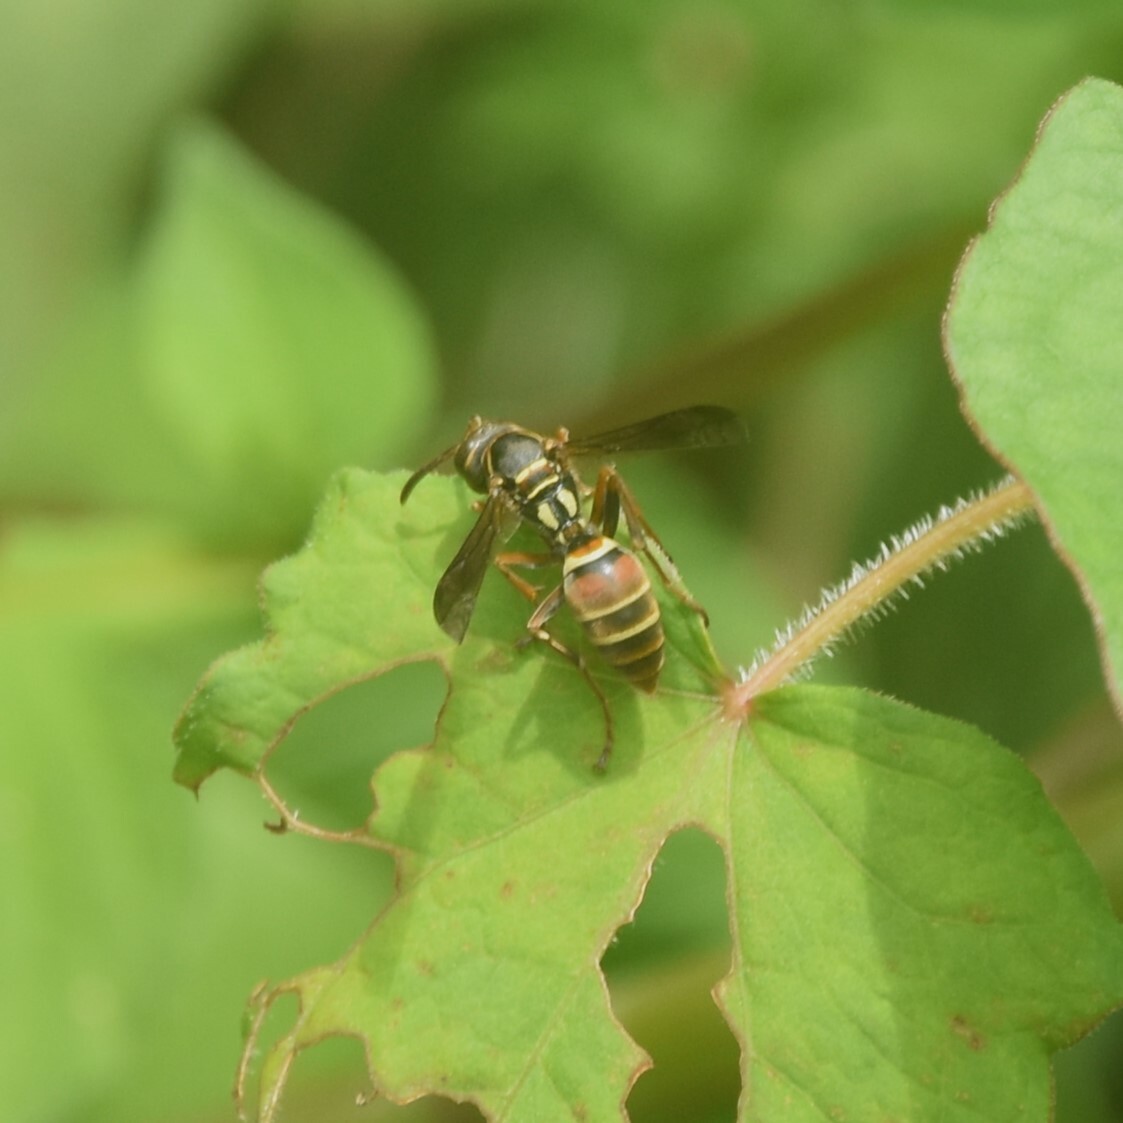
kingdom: Animalia
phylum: Arthropoda
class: Insecta
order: Hymenoptera
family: Eumenidae
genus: Knemodynerus
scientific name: Knemodynerus multimaculatus
